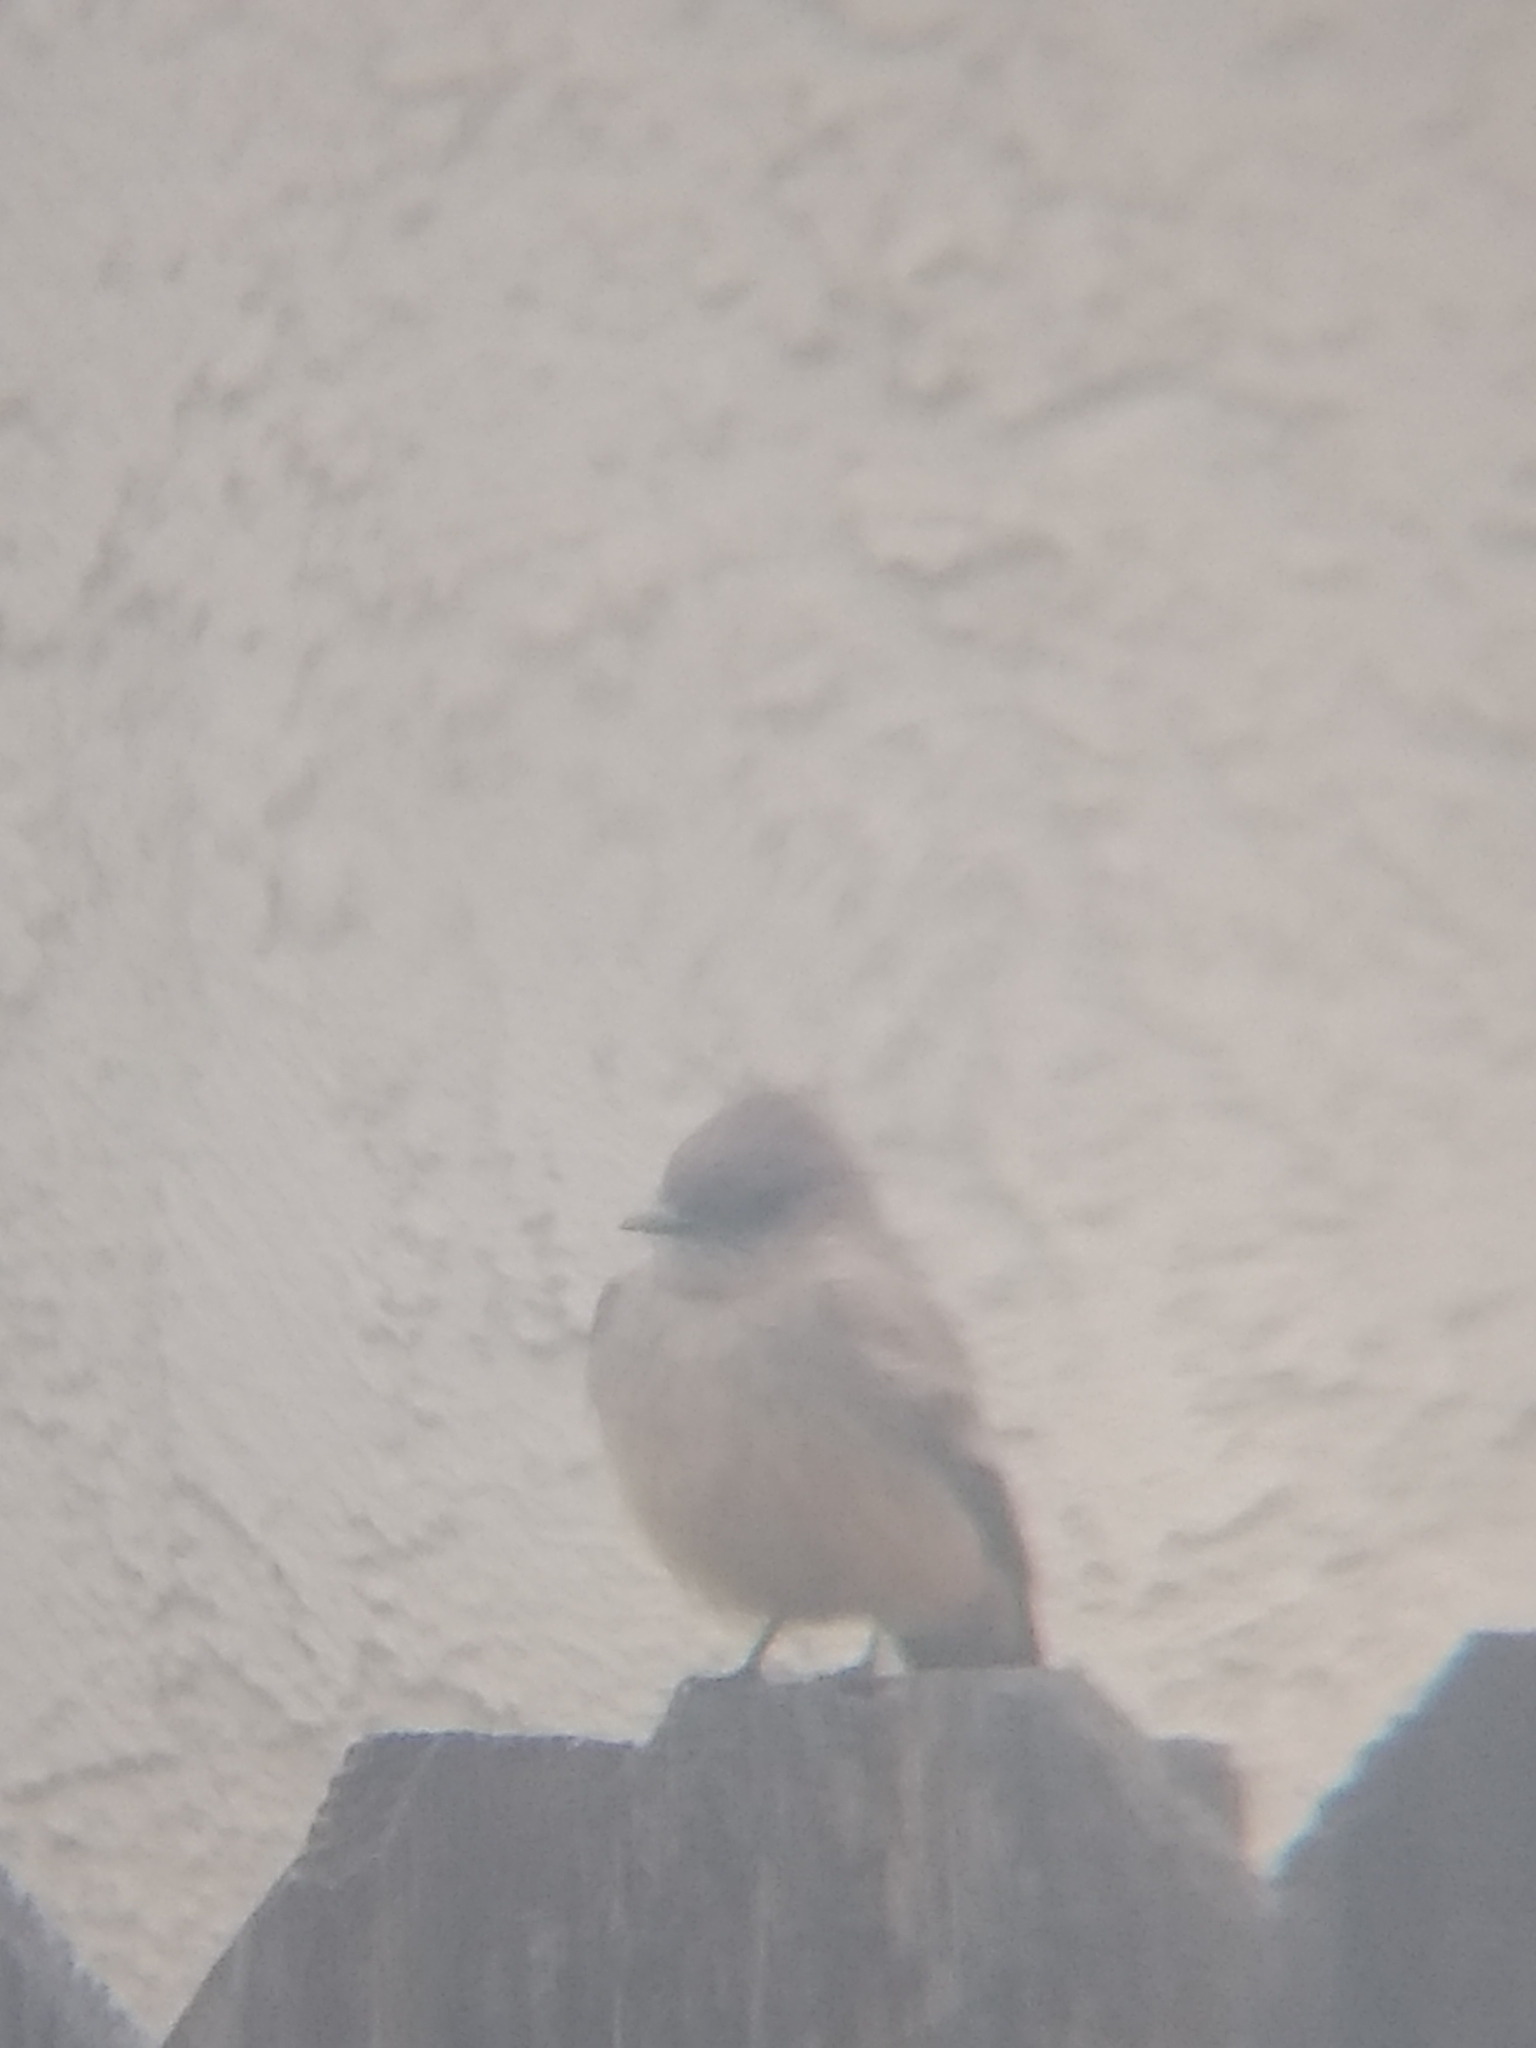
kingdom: Animalia
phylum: Chordata
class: Aves
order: Passeriformes
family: Tyrannidae
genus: Sayornis
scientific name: Sayornis saya
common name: Say's phoebe
